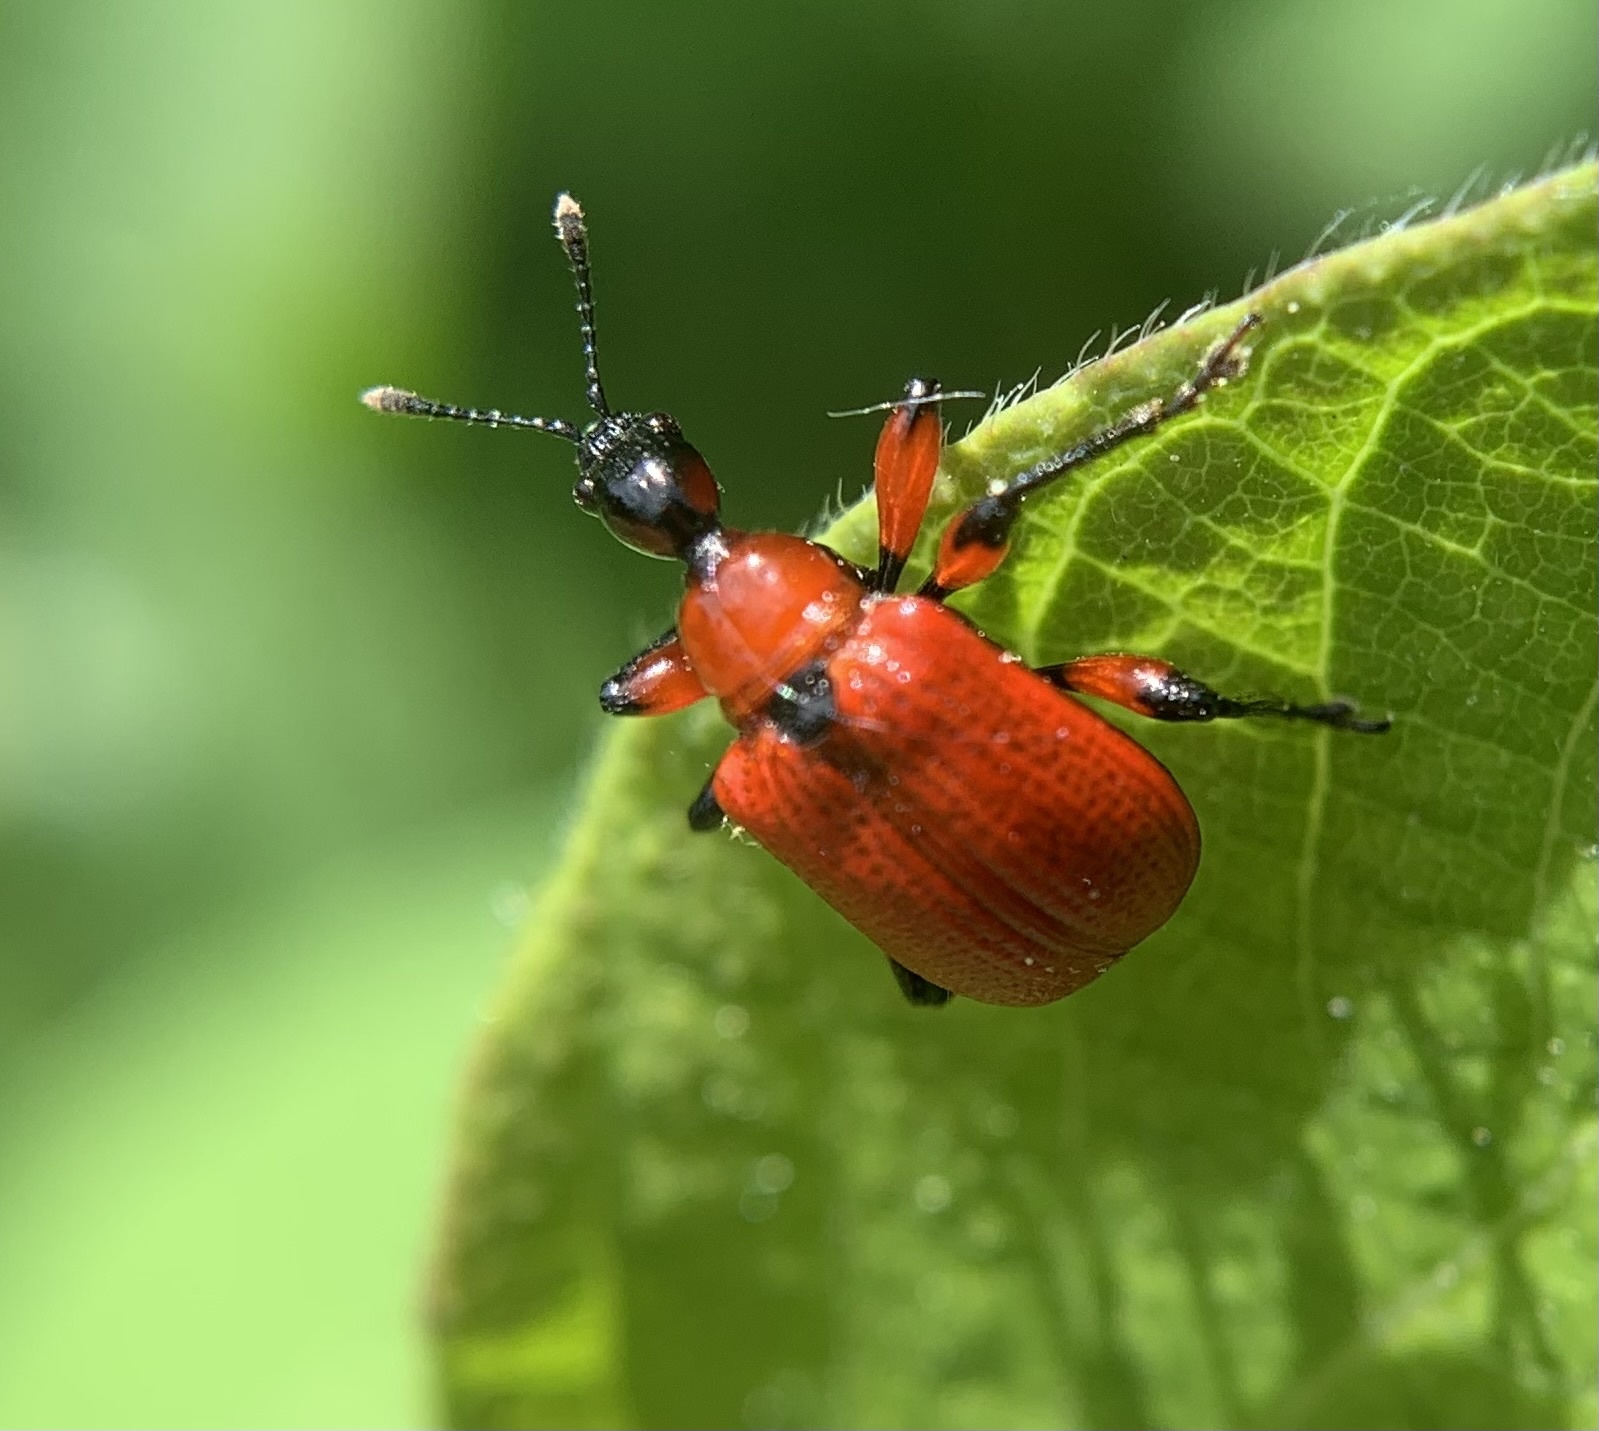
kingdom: Animalia
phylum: Arthropoda
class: Insecta
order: Coleoptera
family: Attelabidae
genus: Apoderus
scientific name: Apoderus coryli
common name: Hazel leaf roller
